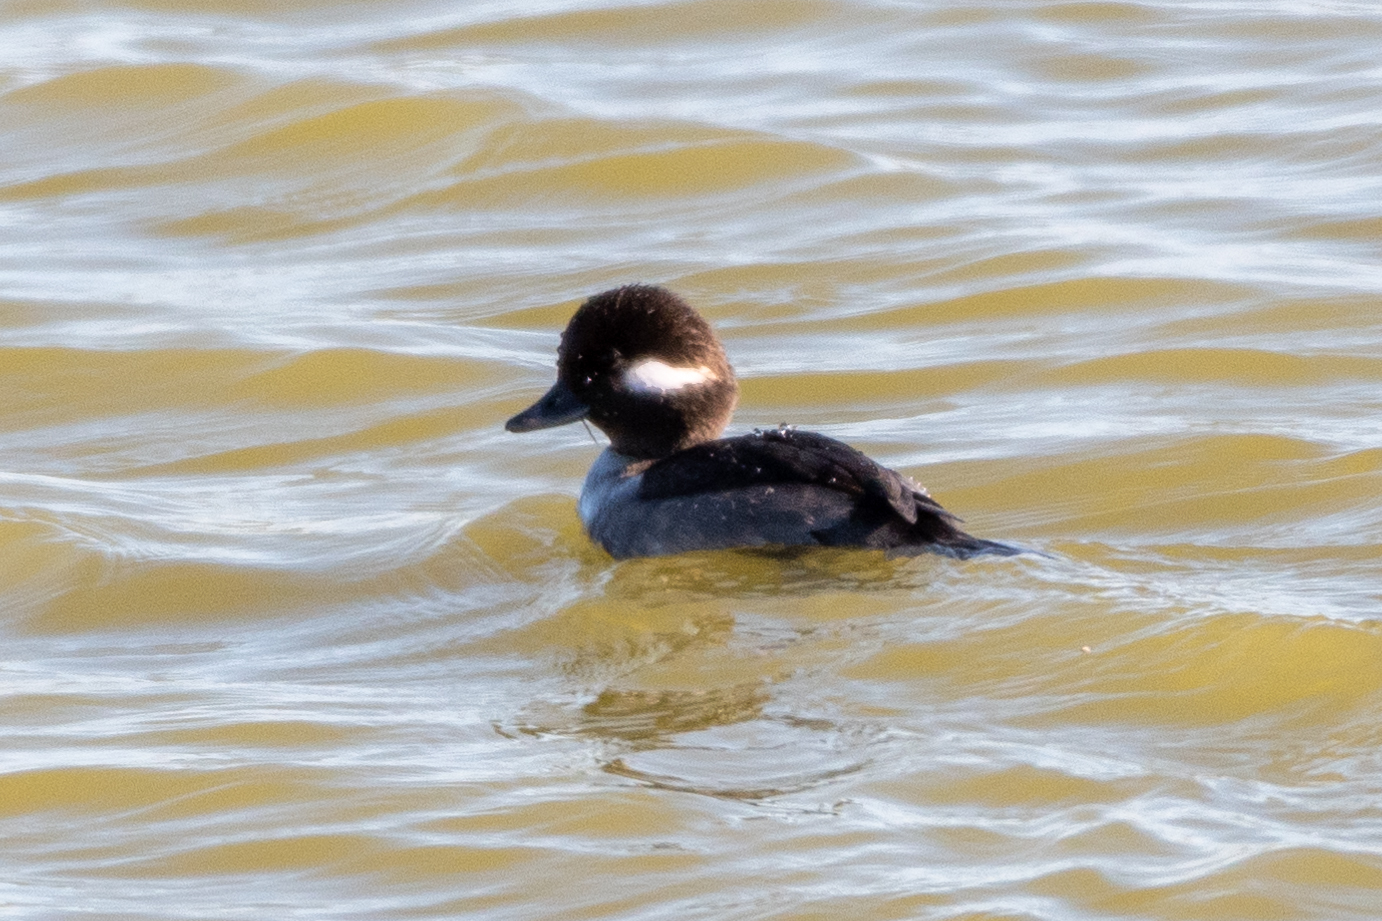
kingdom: Animalia
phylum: Chordata
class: Aves
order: Anseriformes
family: Anatidae
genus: Bucephala
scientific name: Bucephala albeola
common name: Bufflehead
